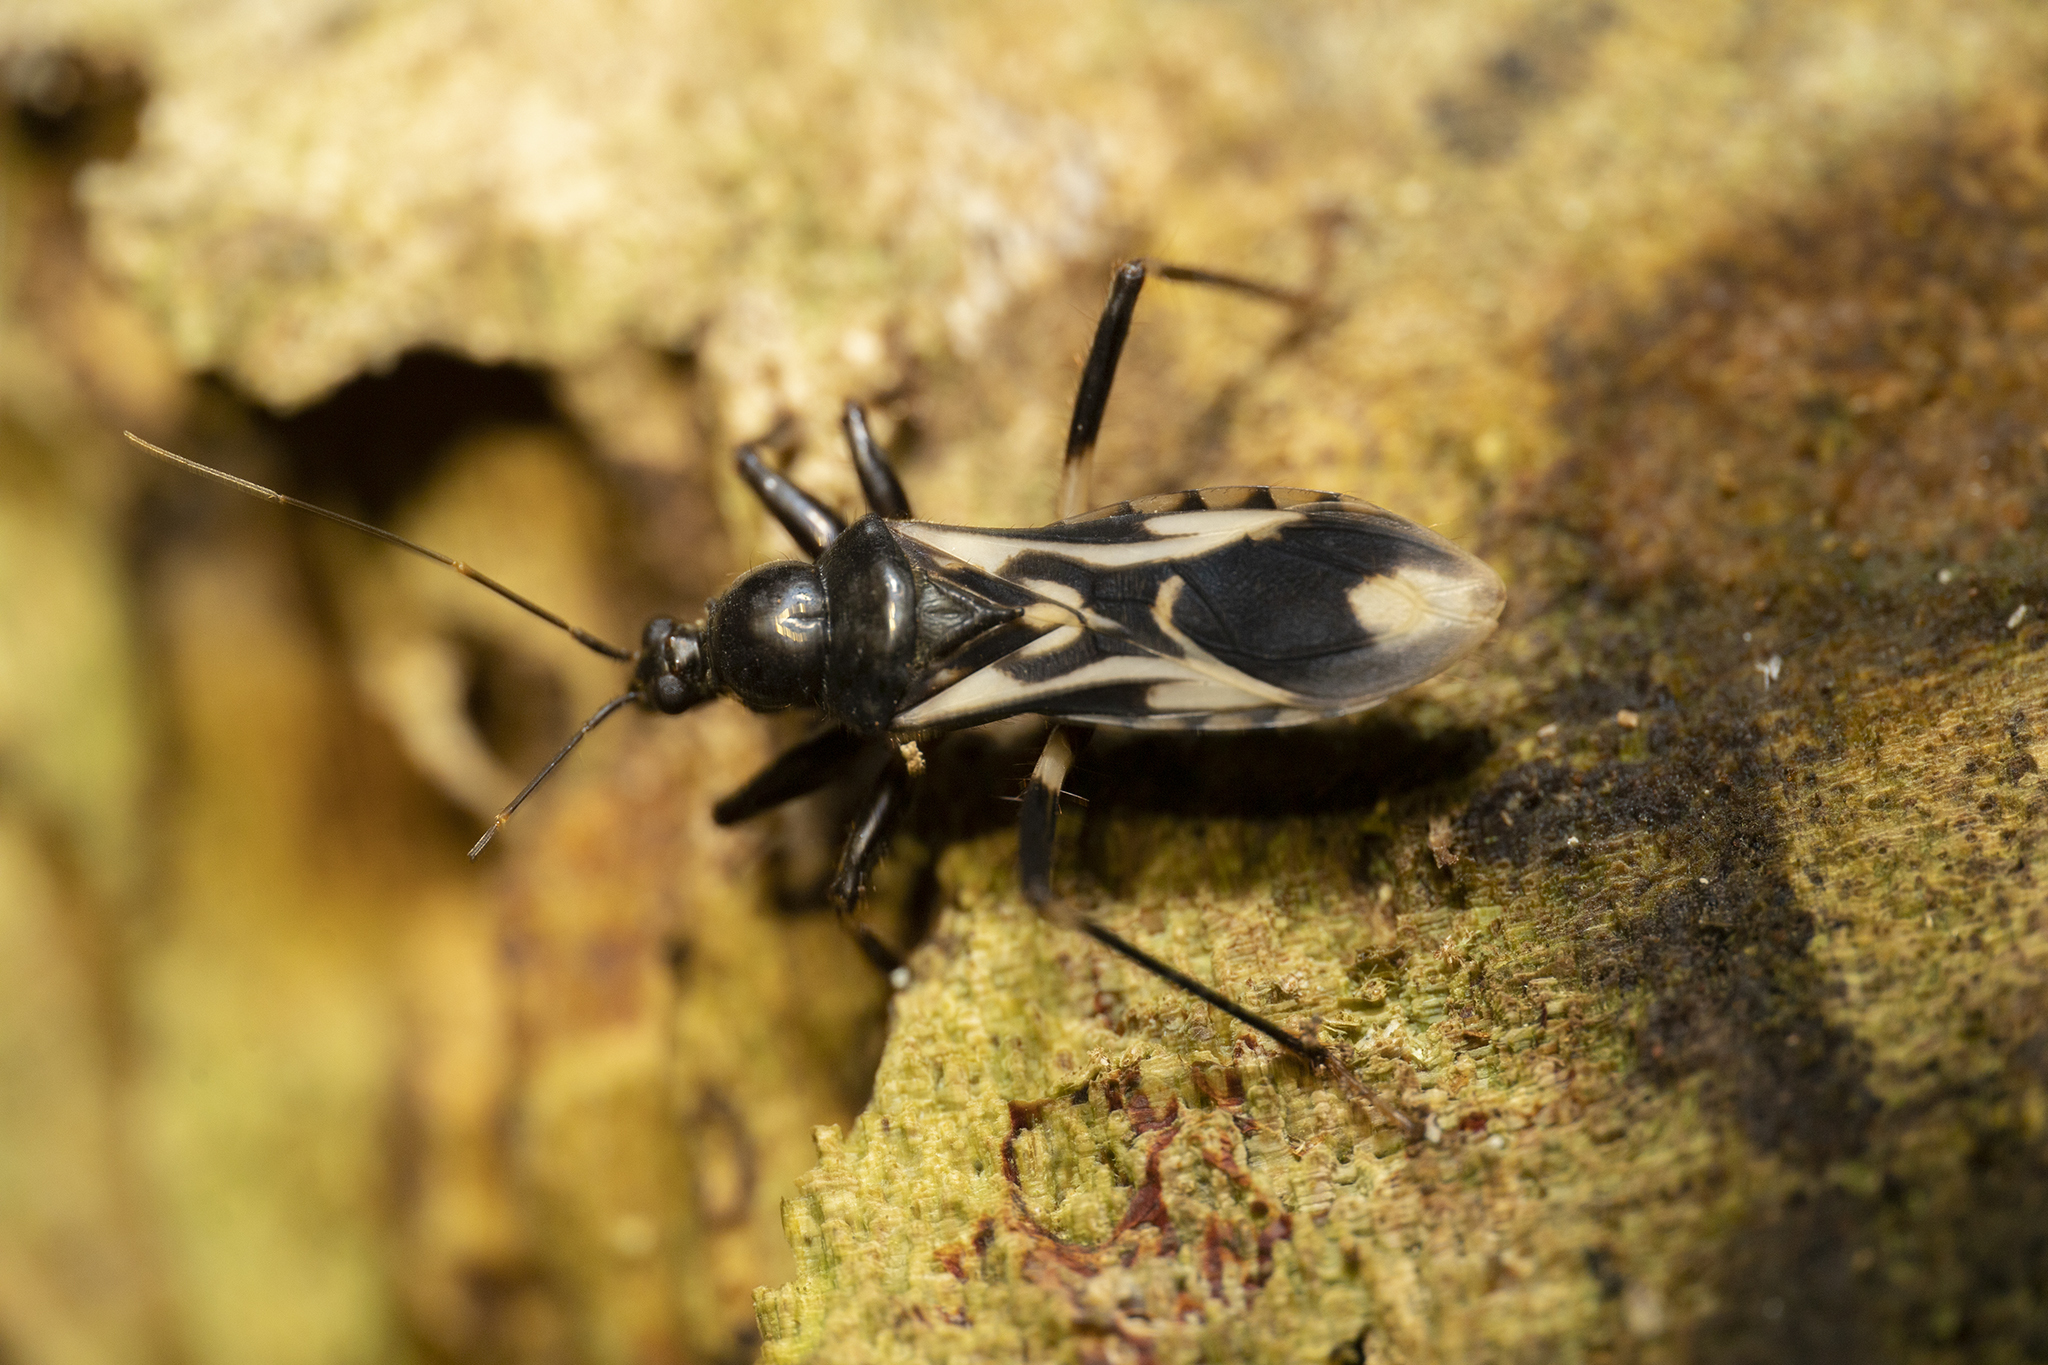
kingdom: Animalia
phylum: Arthropoda
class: Insecta
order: Hemiptera
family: Reduviidae
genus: Rasahus
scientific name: Rasahus albomaculatus
